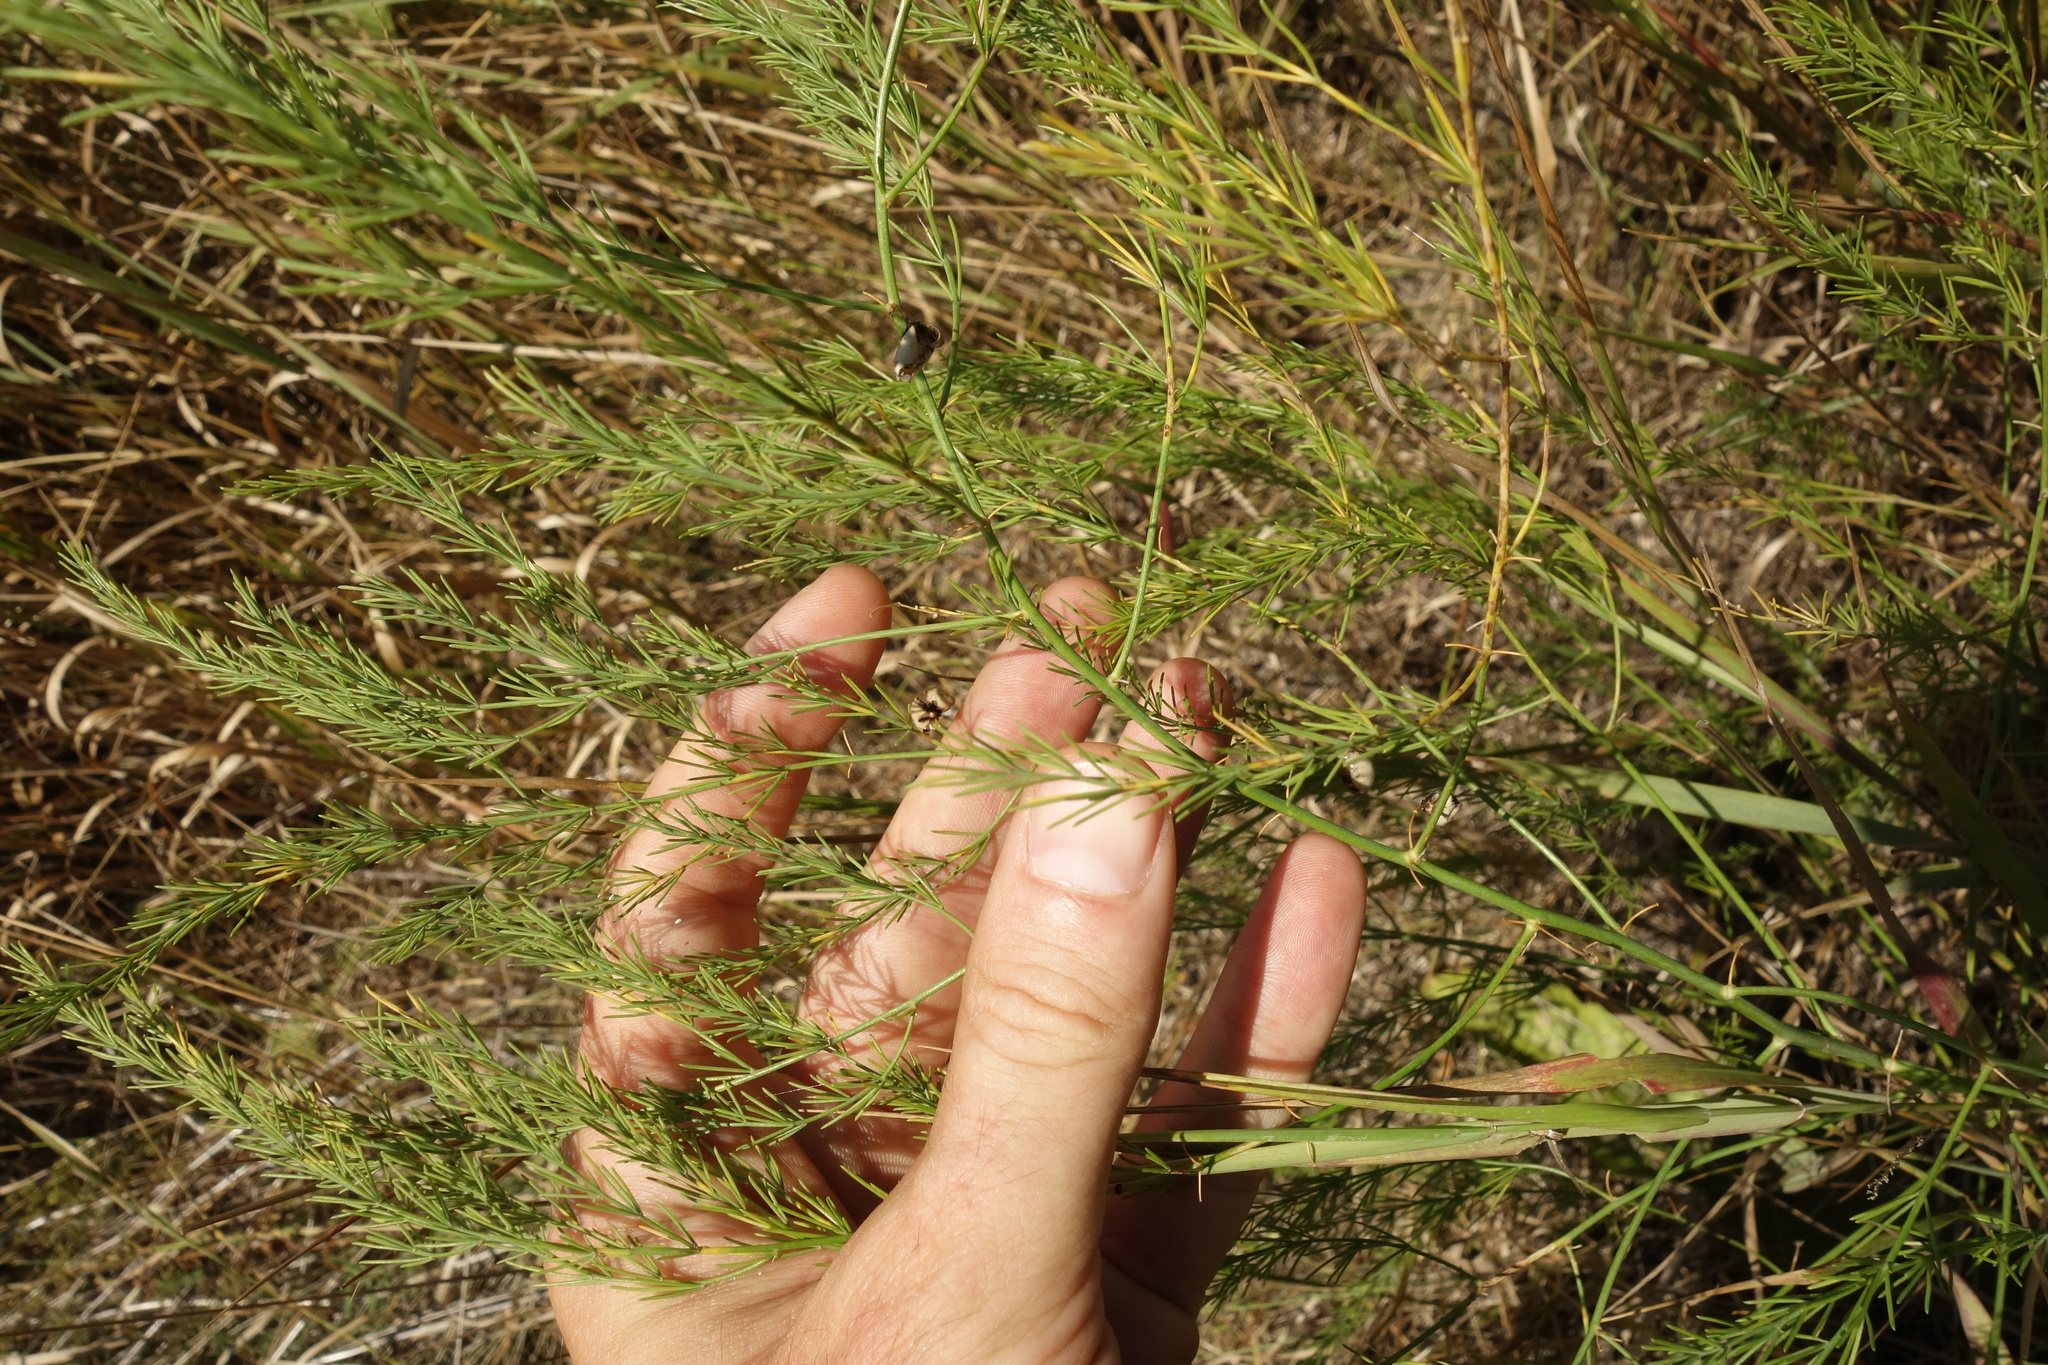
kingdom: Plantae
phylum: Tracheophyta
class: Liliopsida
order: Asparagales
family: Asparagaceae
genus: Asparagus
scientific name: Asparagus officinalis
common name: Garden asparagus
